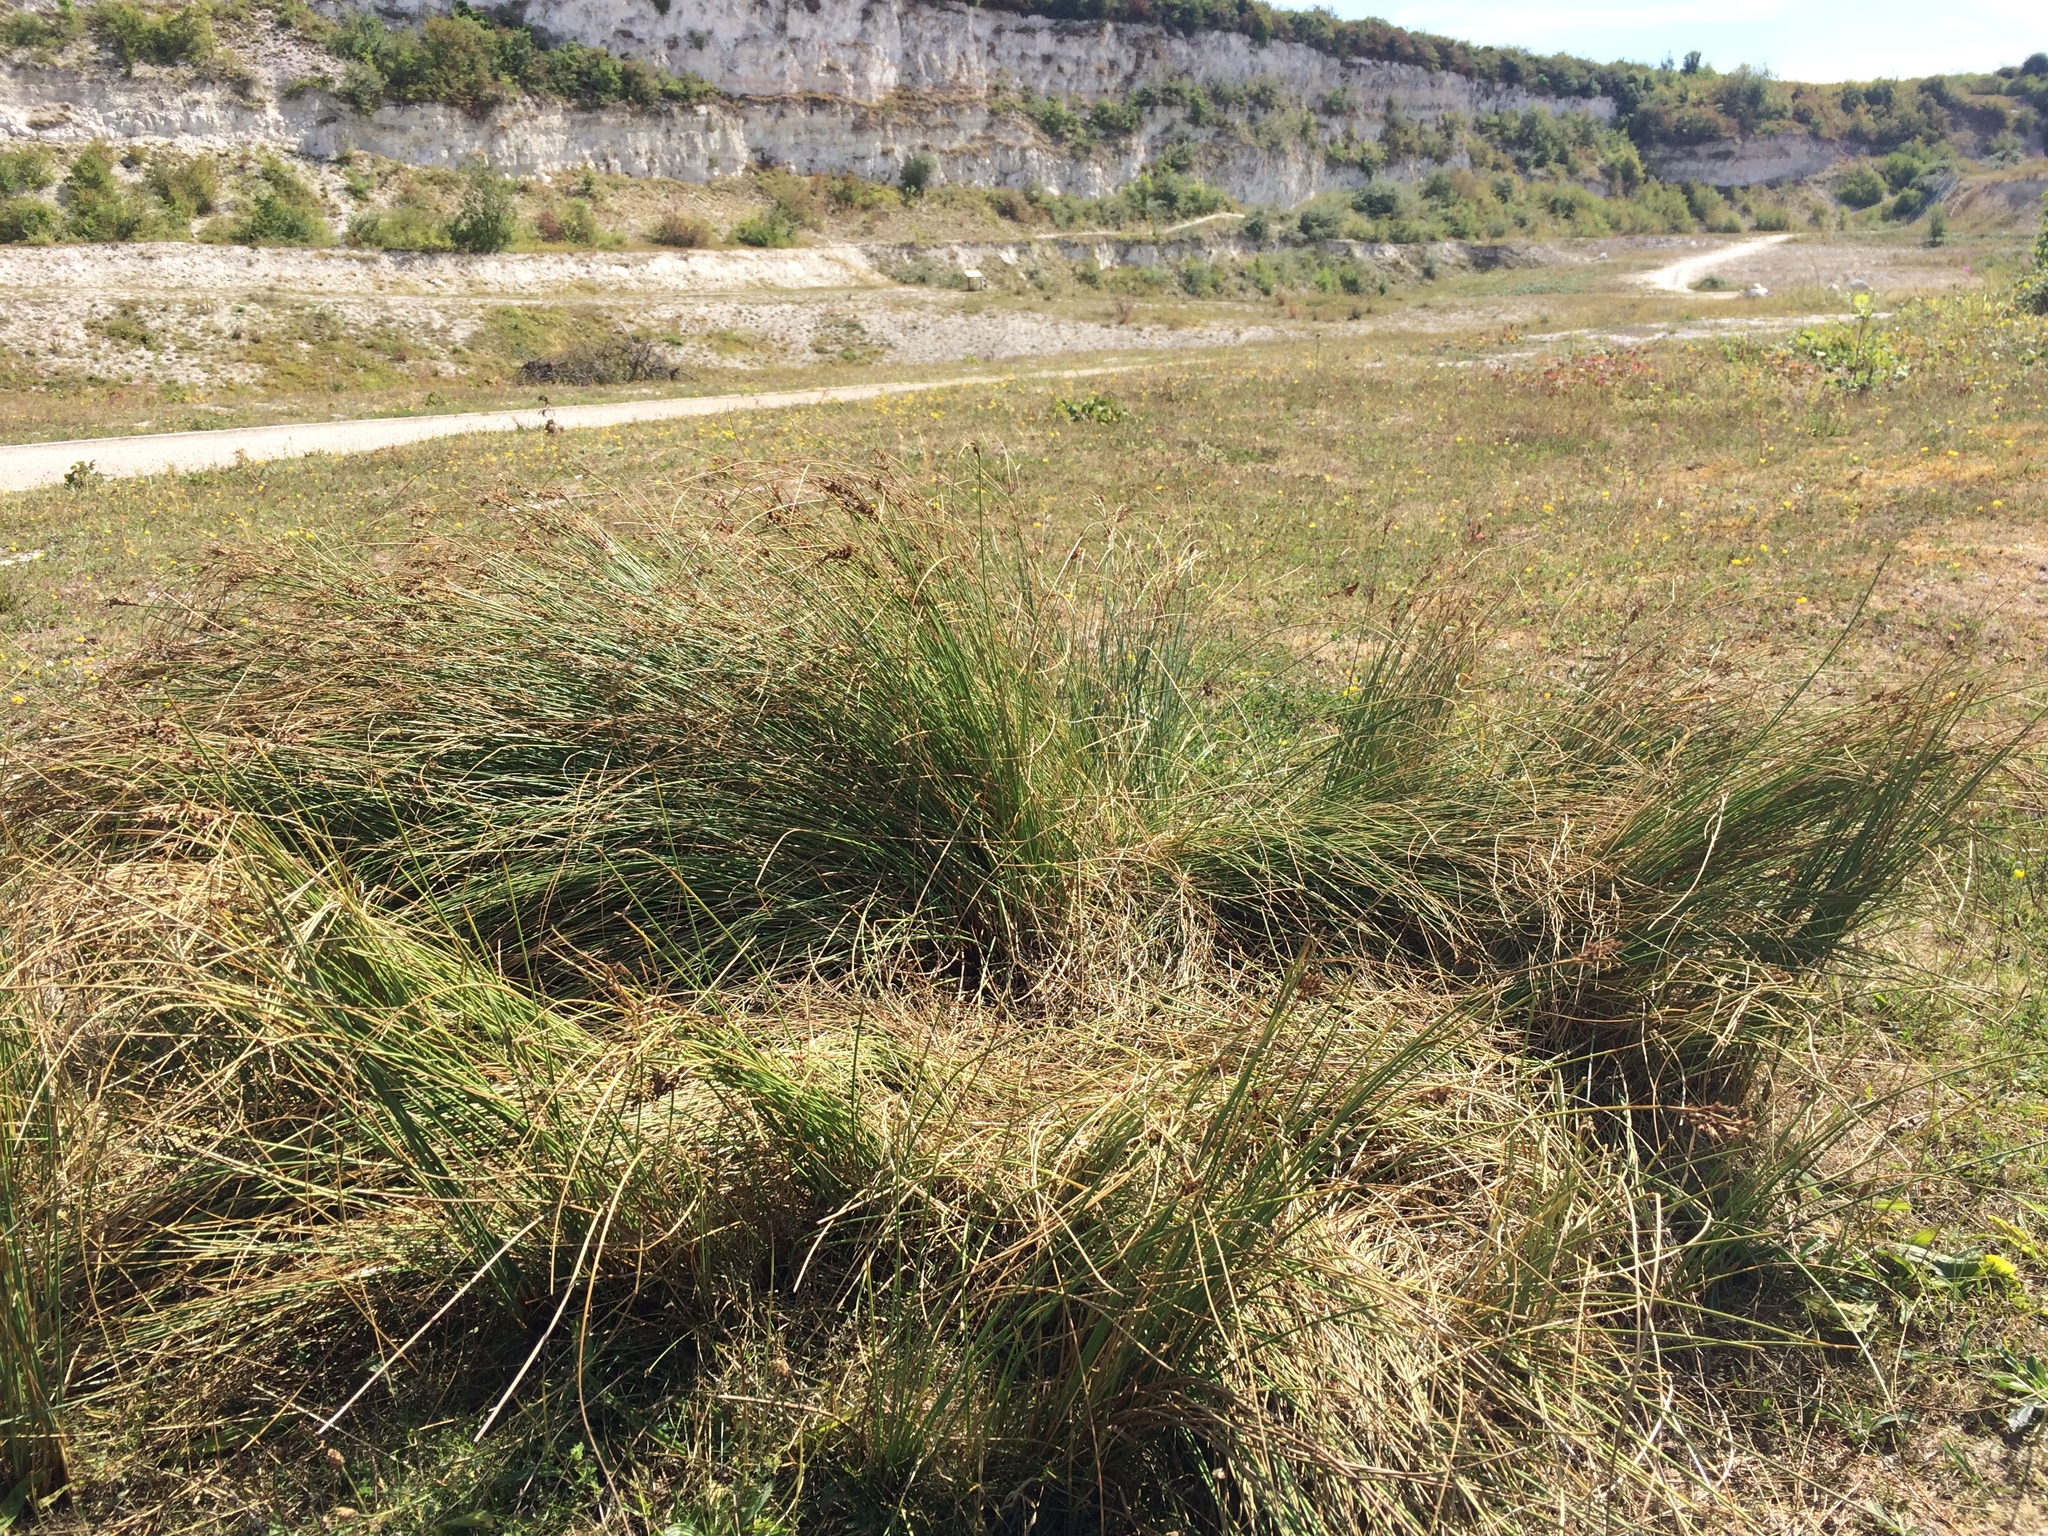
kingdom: Plantae
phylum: Tracheophyta
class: Liliopsida
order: Poales
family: Juncaceae
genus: Juncus
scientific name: Juncus inflexus
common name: Hard rush
